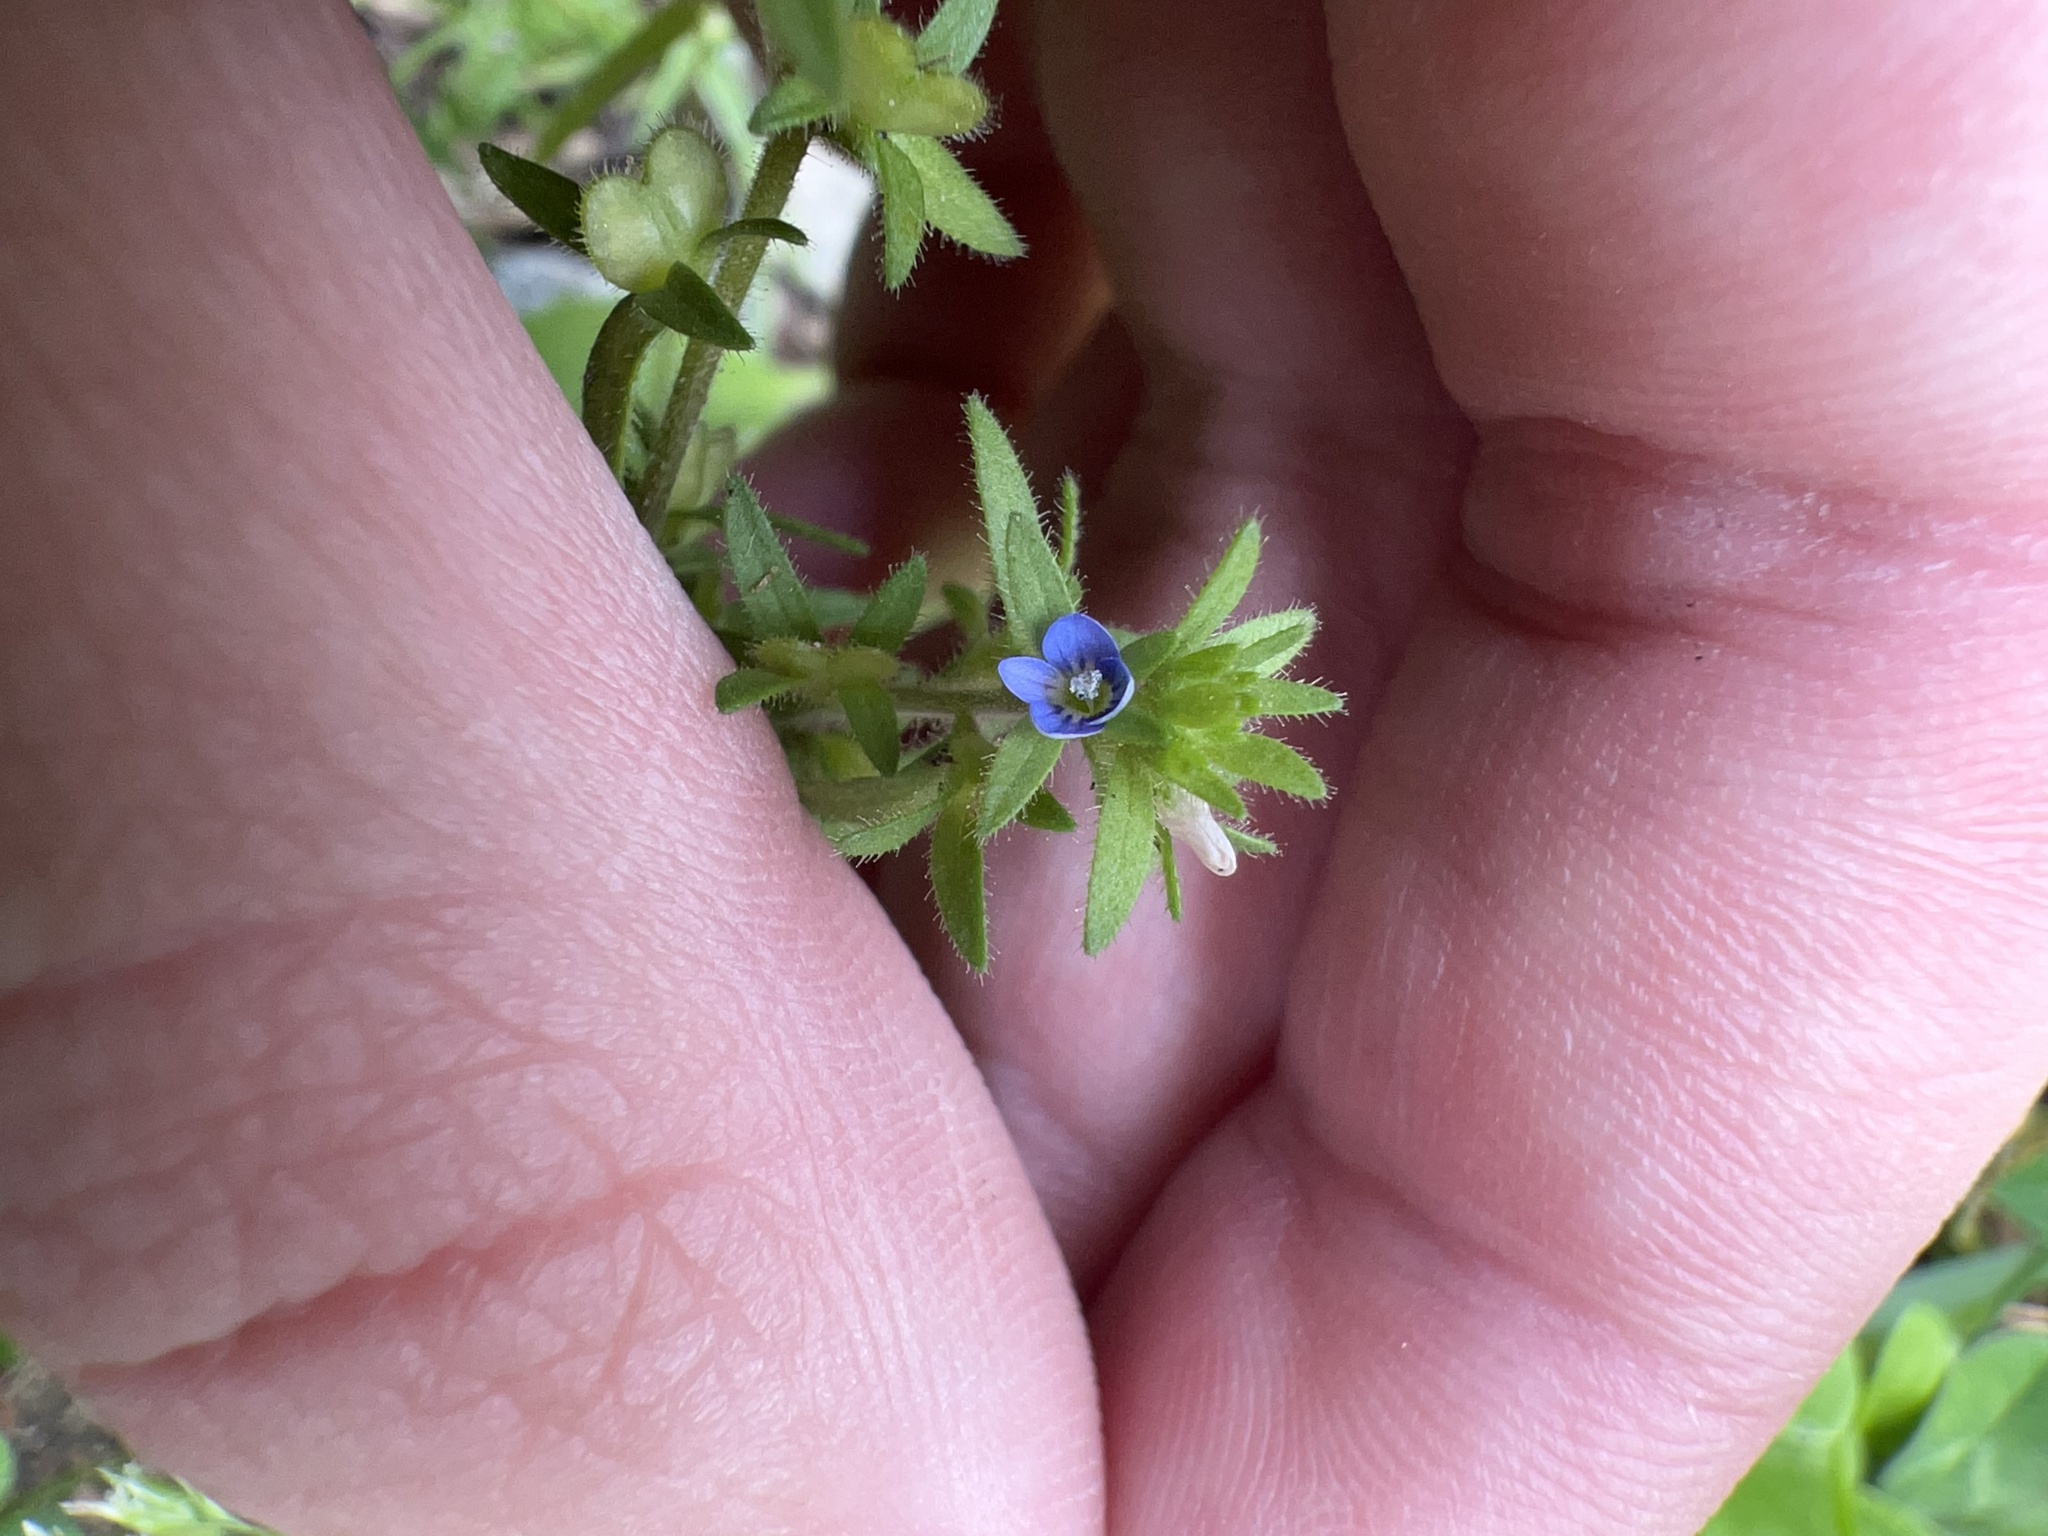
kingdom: Plantae
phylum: Tracheophyta
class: Magnoliopsida
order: Lamiales
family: Plantaginaceae
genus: Veronica
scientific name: Veronica arvensis
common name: Corn speedwell
